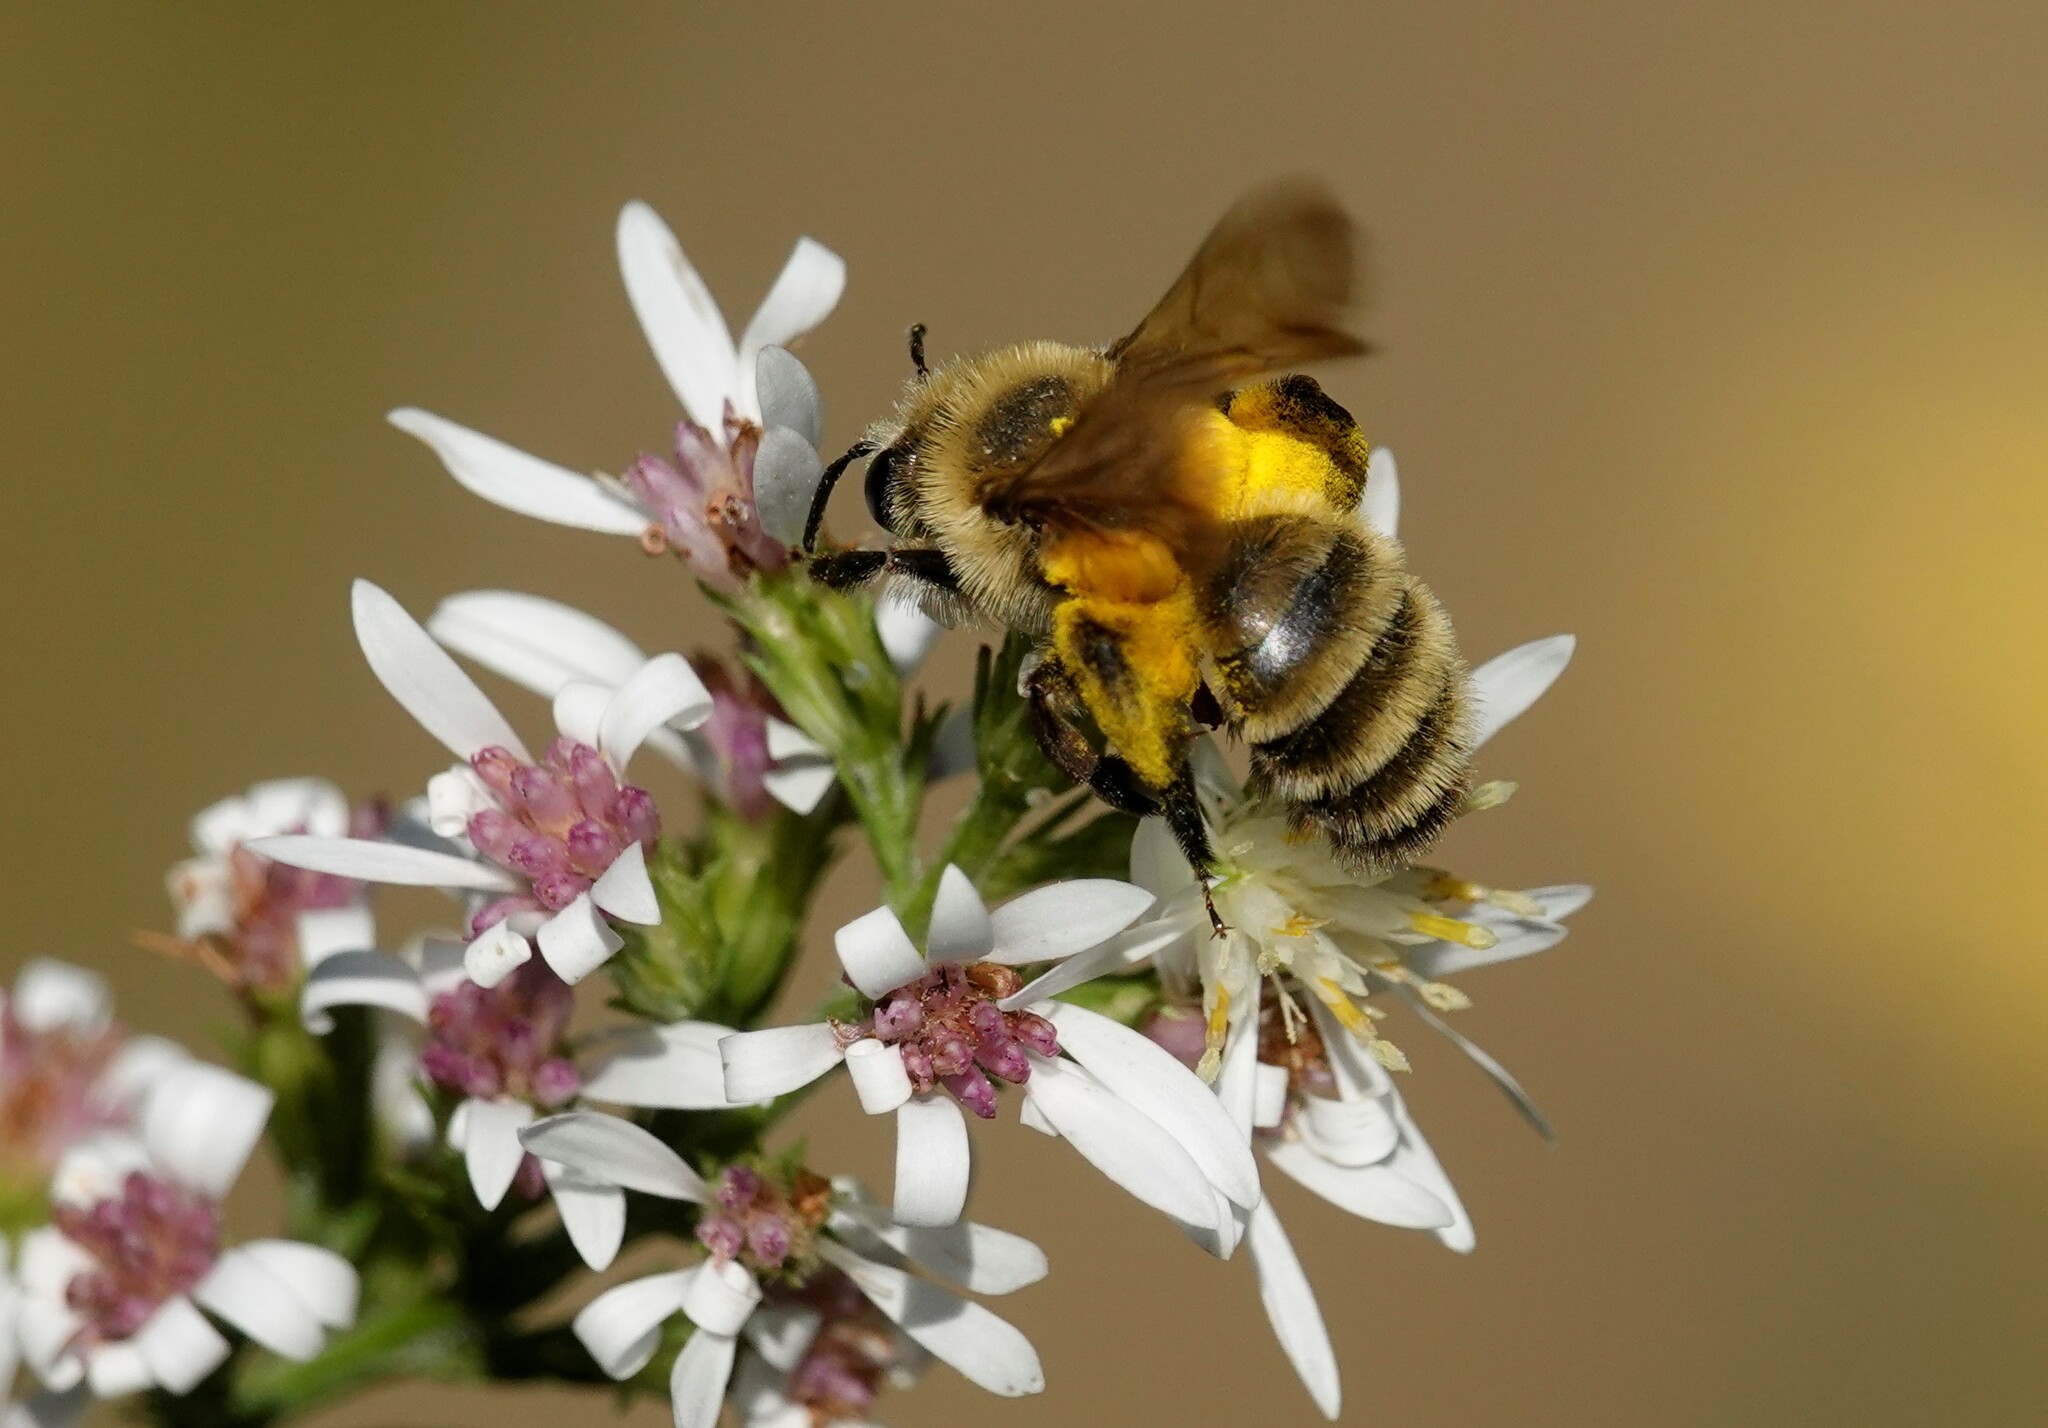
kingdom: Animalia
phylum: Arthropoda
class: Insecta
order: Hymenoptera
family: Andrenidae
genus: Andrena
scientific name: Andrena hirticincta
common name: Hairy-banded mining bee
